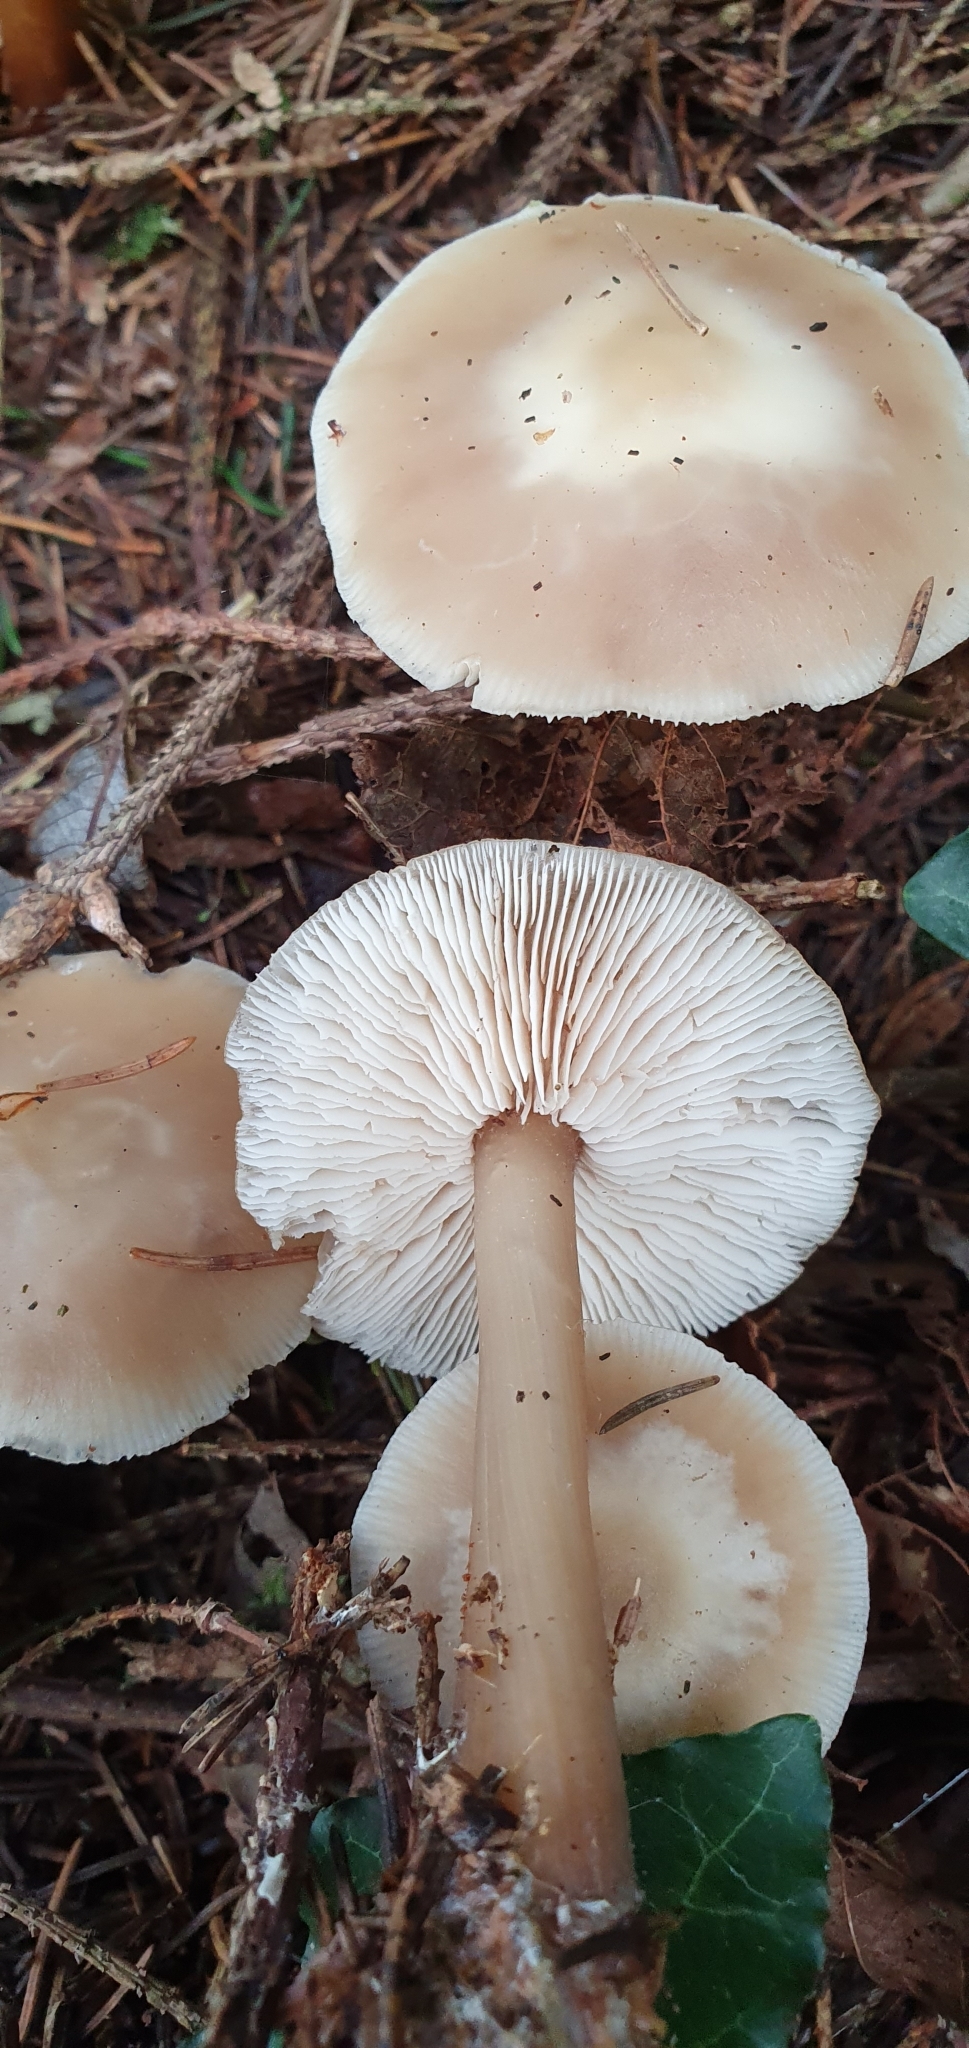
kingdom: Fungi
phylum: Basidiomycota
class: Agaricomycetes
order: Agaricales
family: Omphalotaceae
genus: Rhodocollybia
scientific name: Rhodocollybia butyracea
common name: Butter cap
